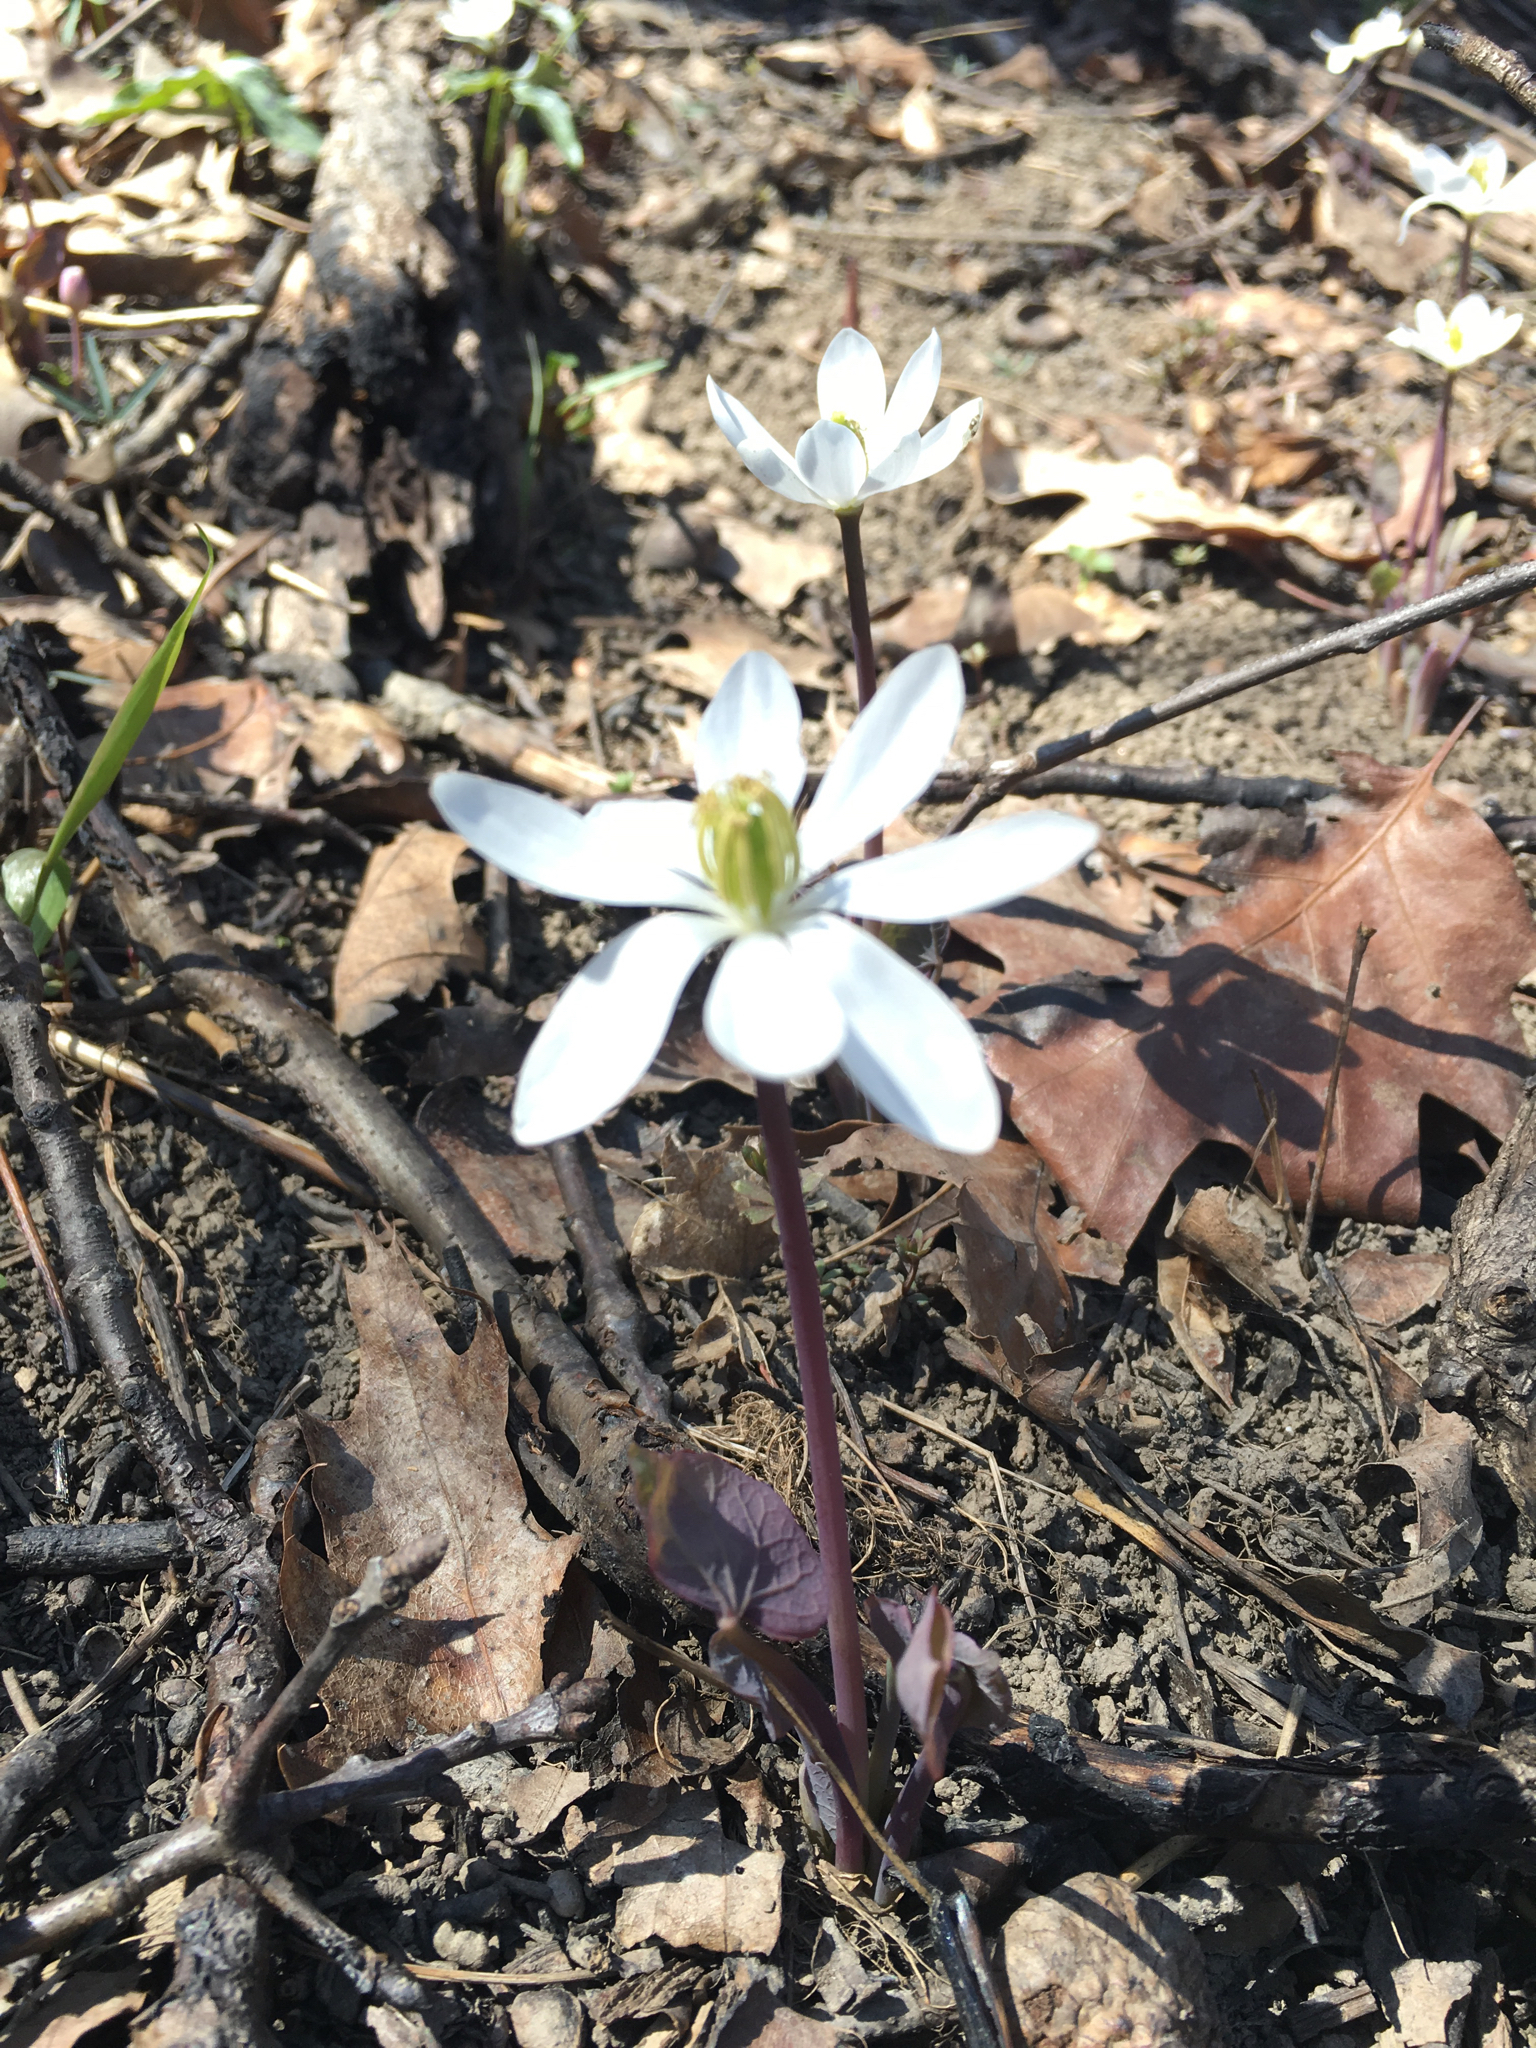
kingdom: Plantae
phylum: Tracheophyta
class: Magnoliopsida
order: Ranunculales
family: Berberidaceae
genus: Jeffersonia
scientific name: Jeffersonia diphylla
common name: Rheumatism-root
